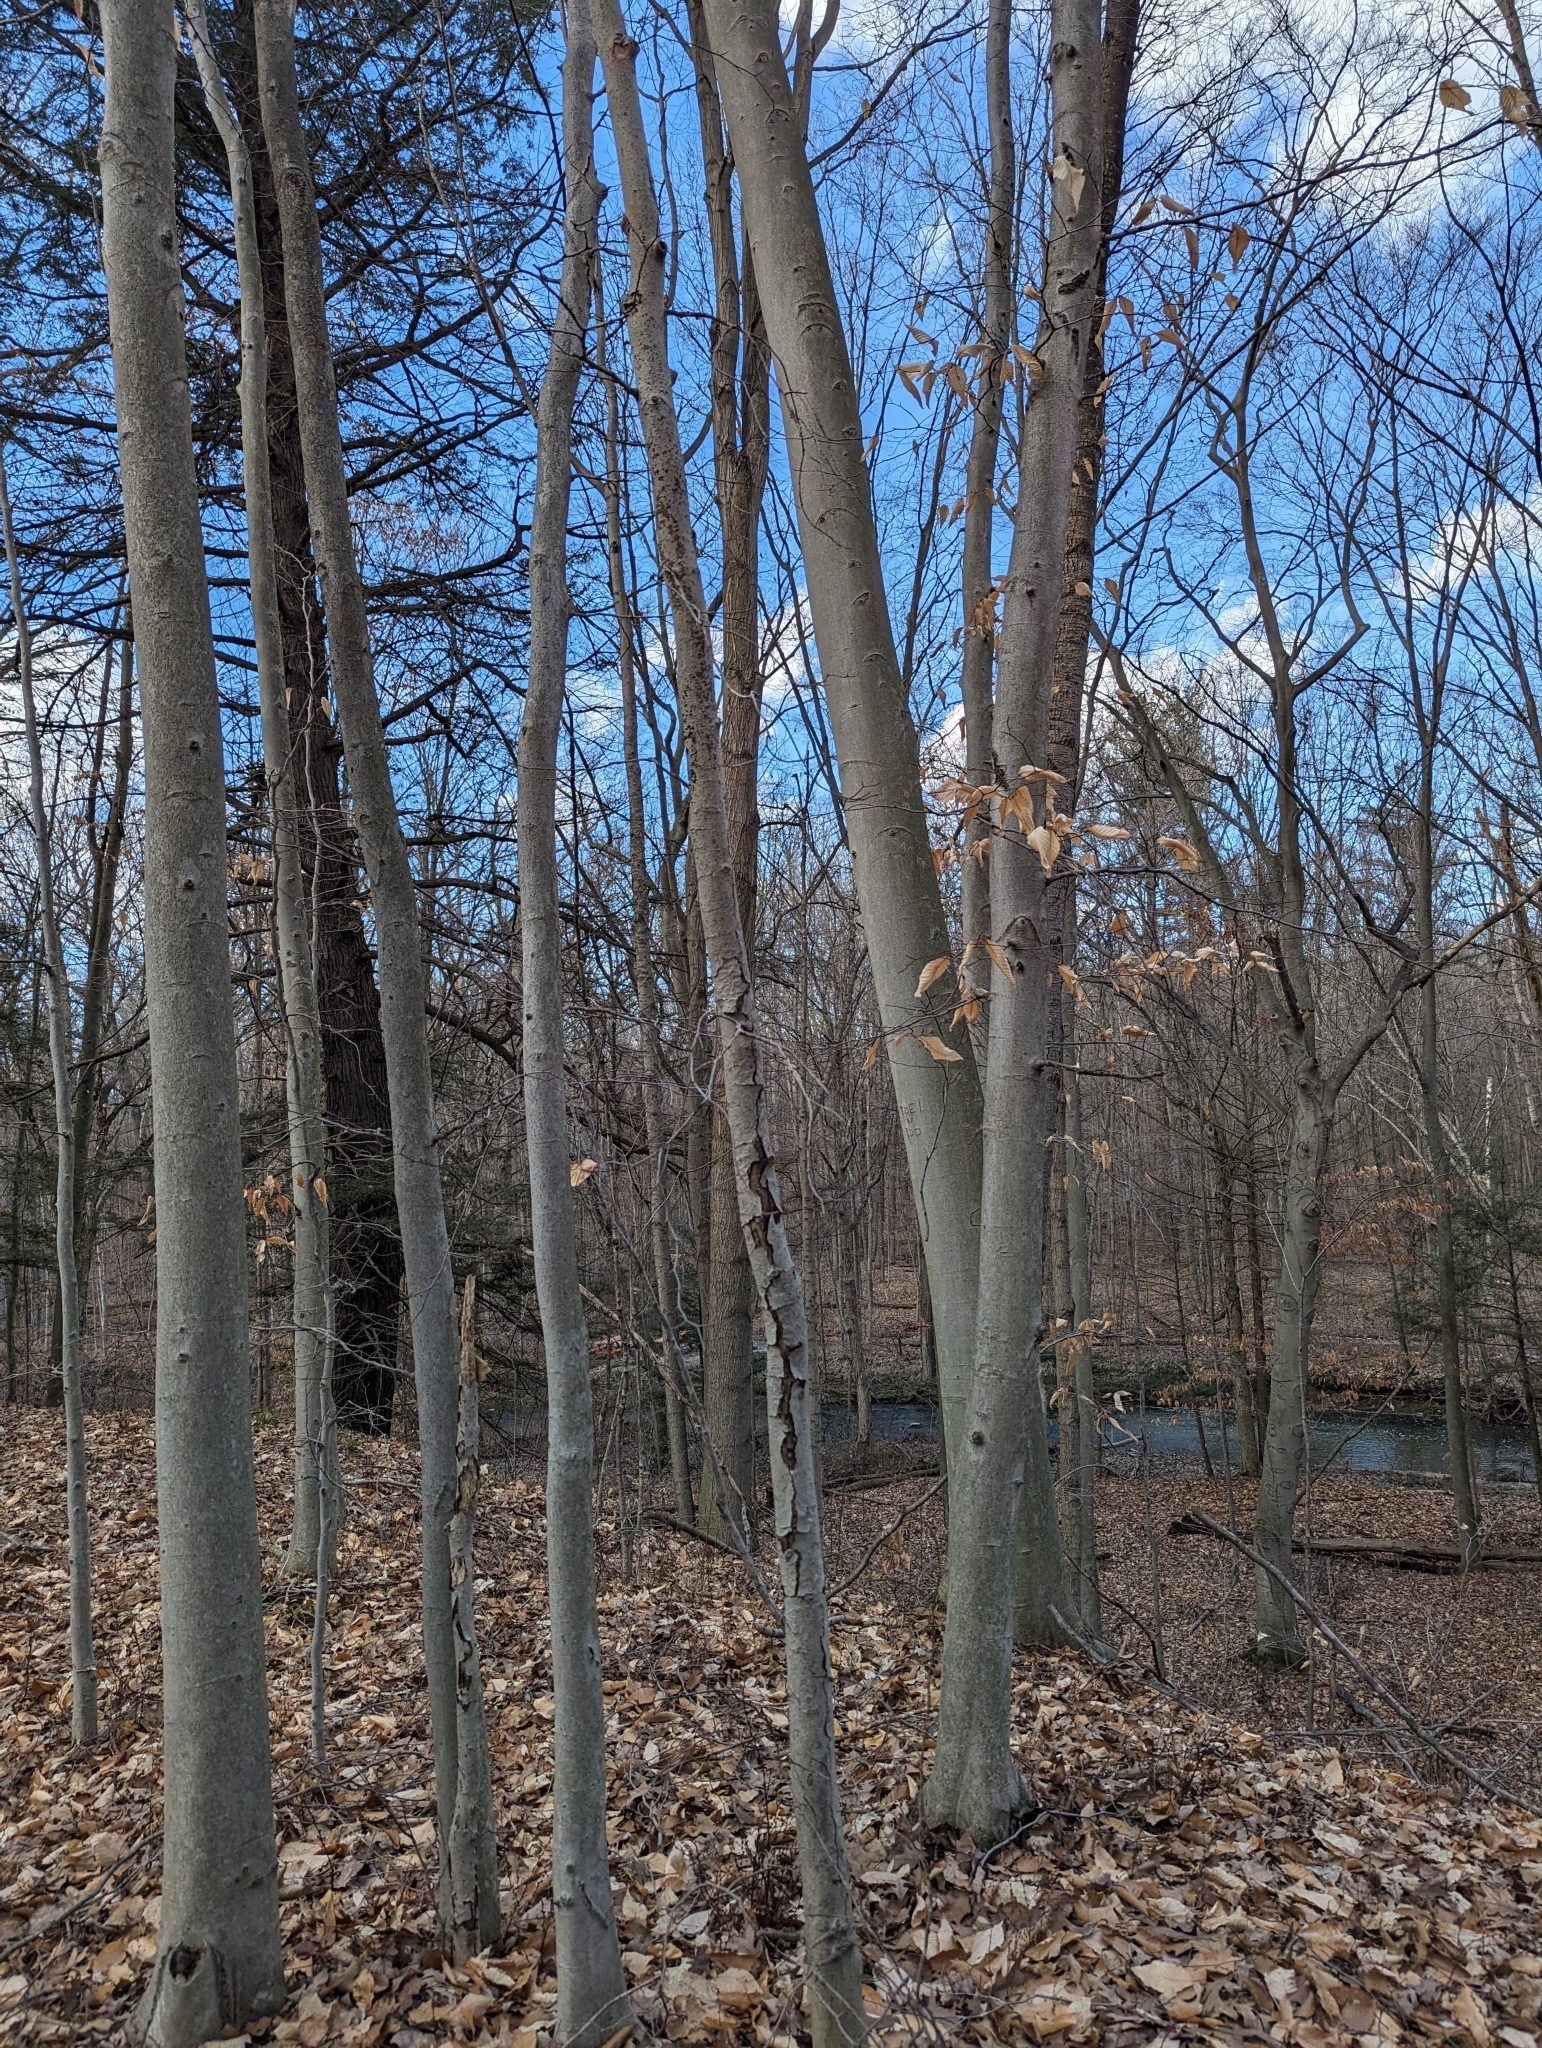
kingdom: Plantae
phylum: Tracheophyta
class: Magnoliopsida
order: Fagales
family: Fagaceae
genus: Fagus
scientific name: Fagus grandifolia
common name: American beech
